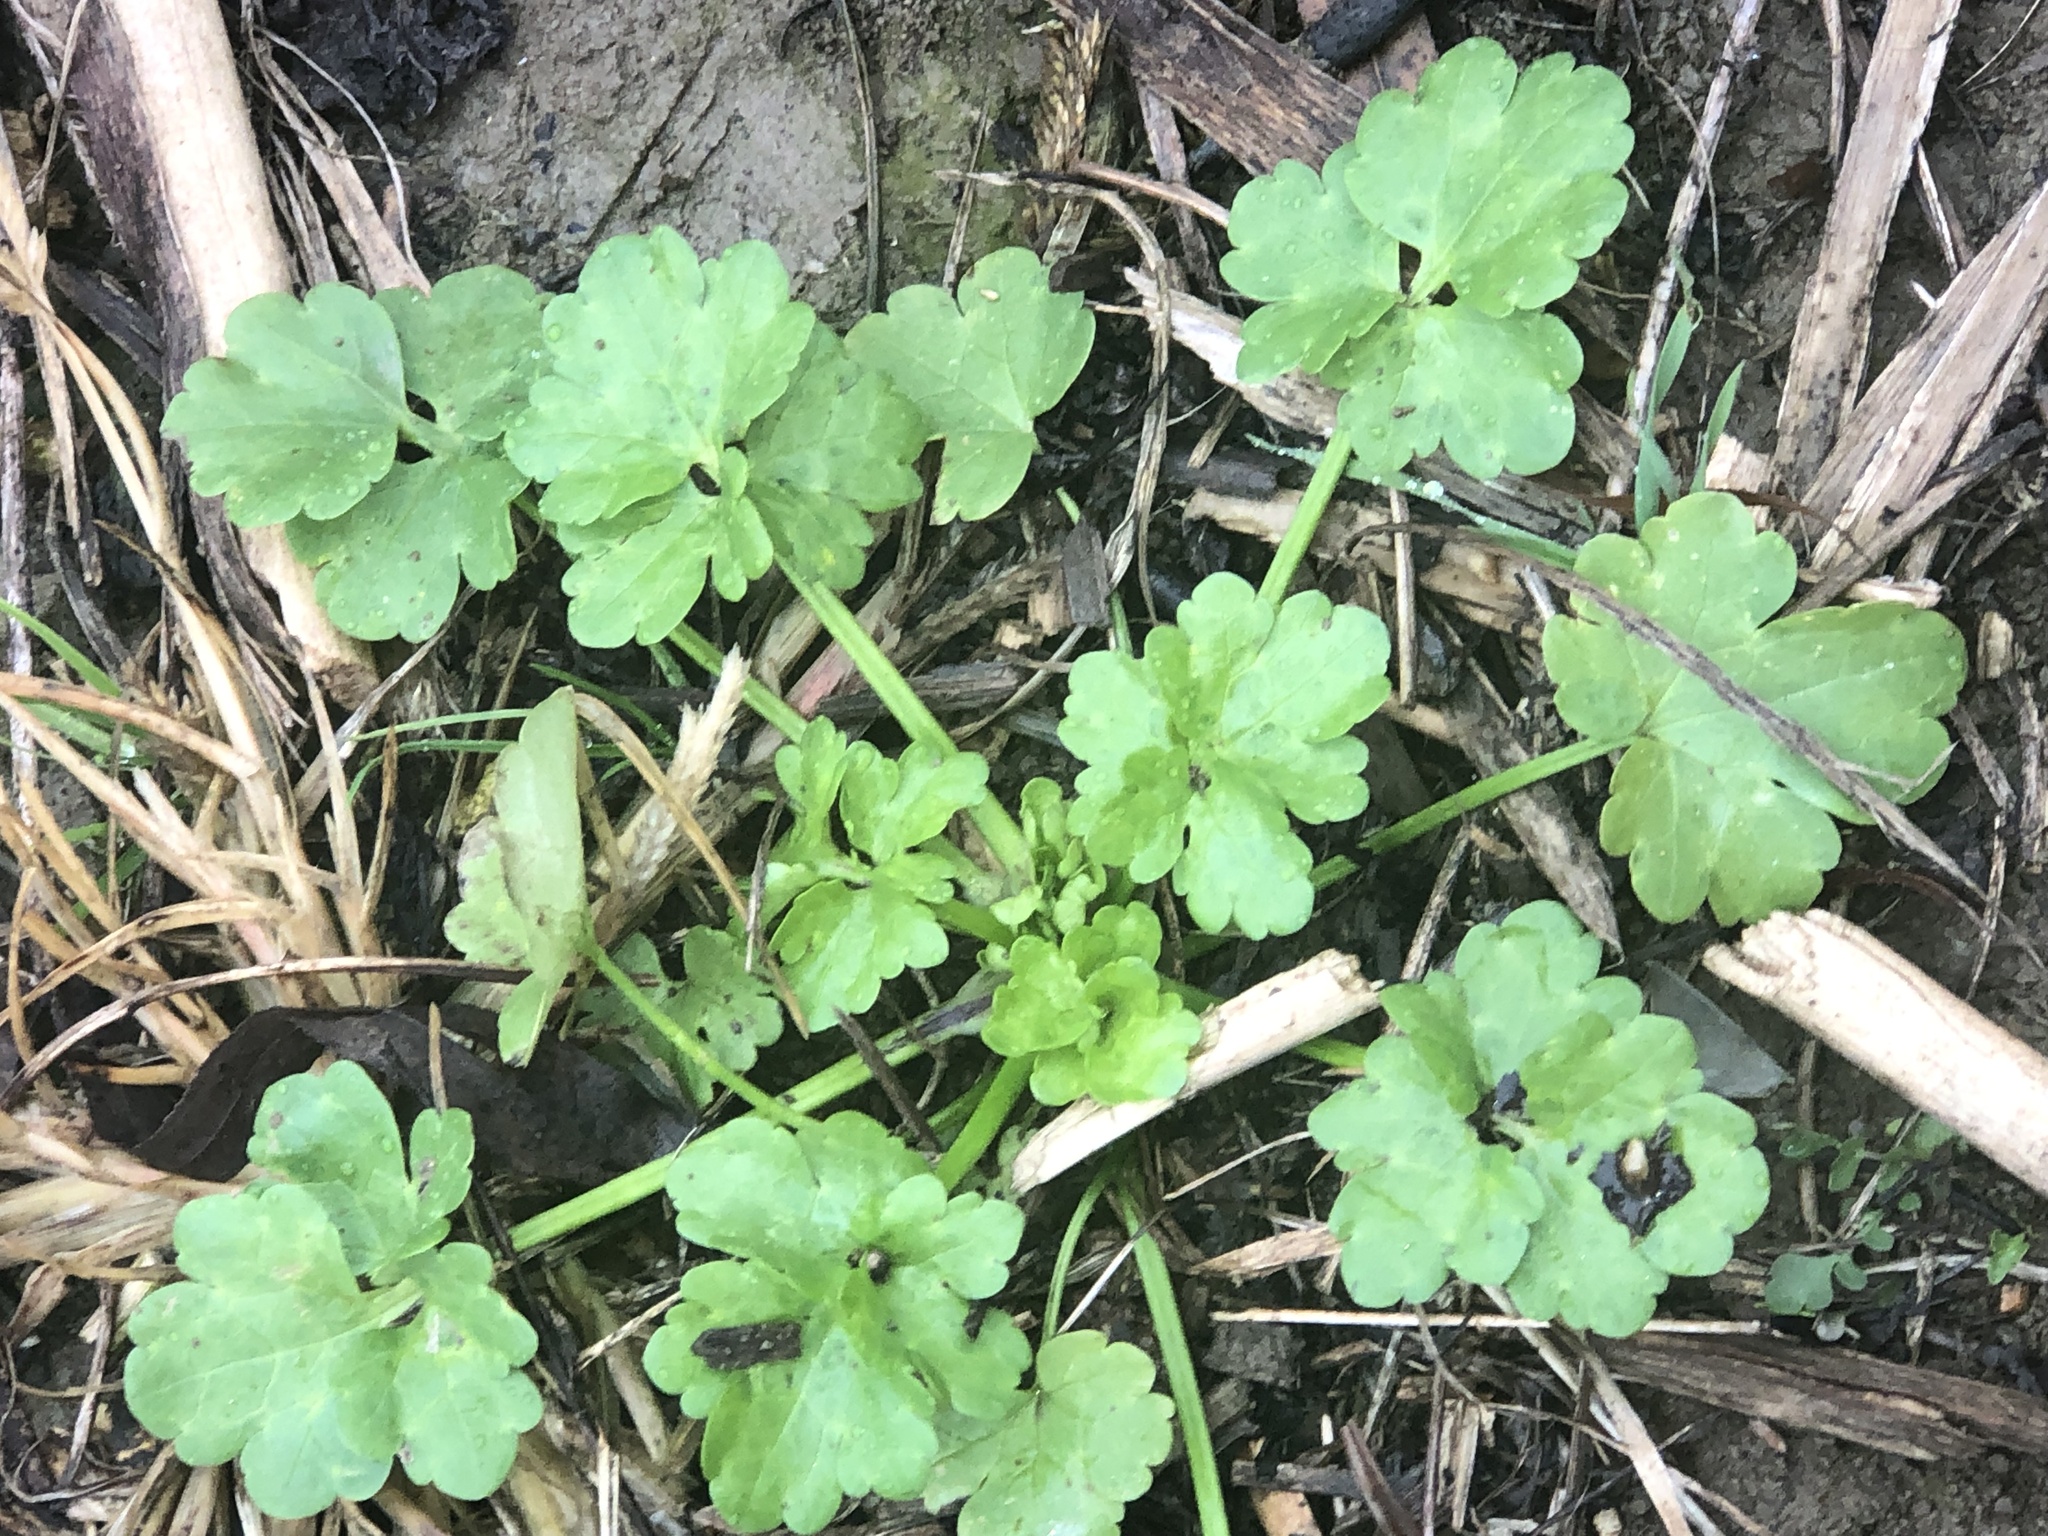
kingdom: Plantae
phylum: Tracheophyta
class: Magnoliopsida
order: Ranunculales
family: Ranunculaceae
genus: Ranunculus
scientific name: Ranunculus sardous
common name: Hairy buttercup
